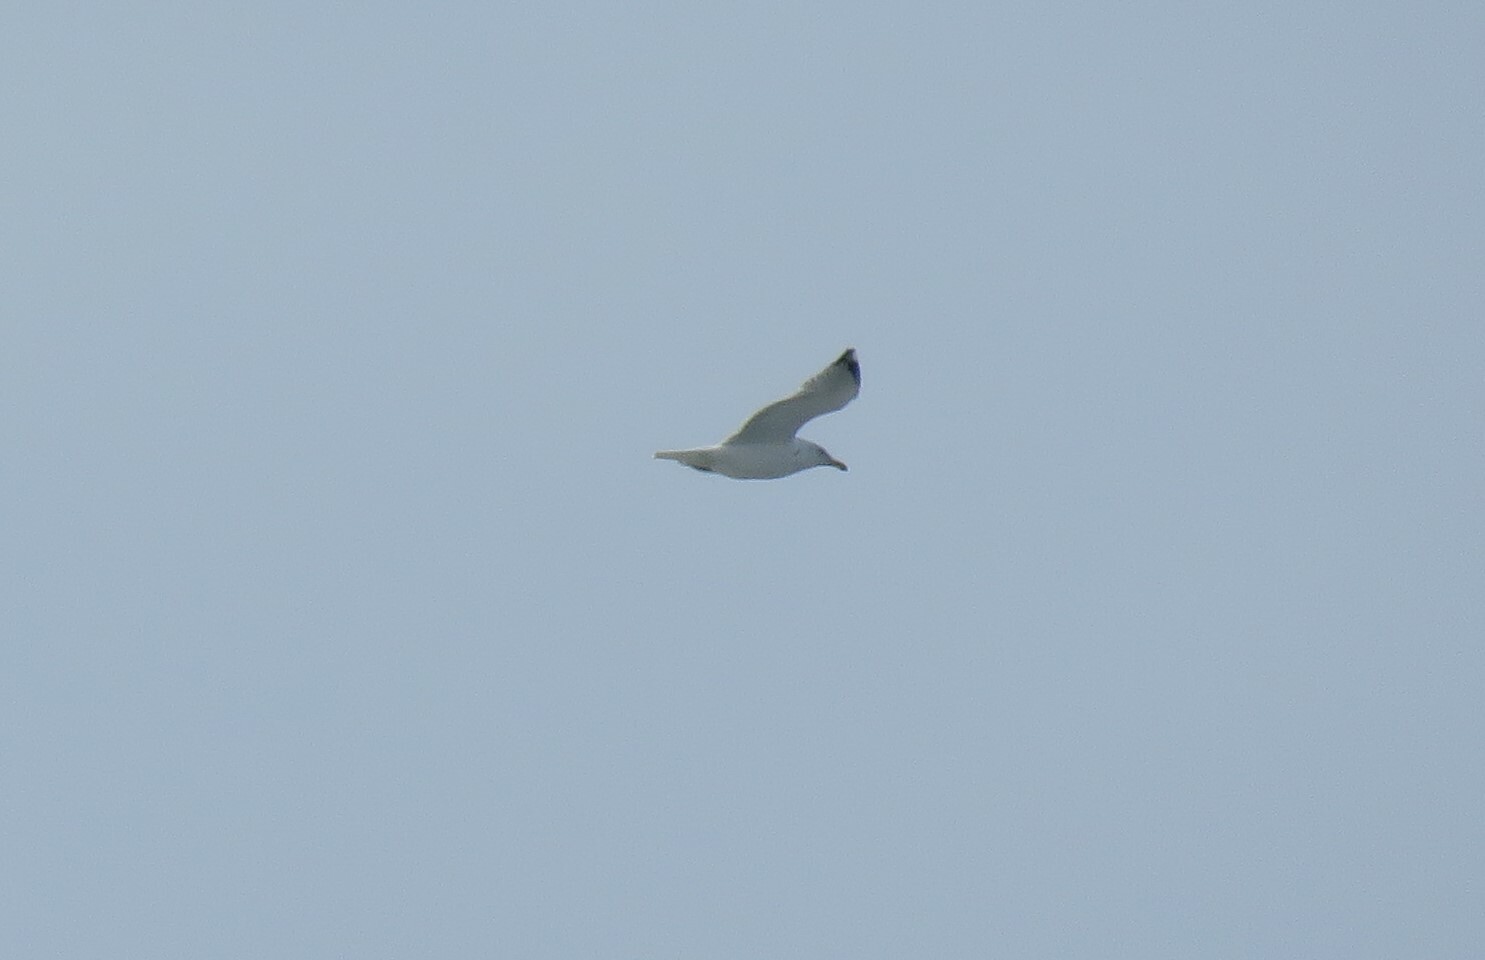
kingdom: Animalia
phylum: Chordata
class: Aves
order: Charadriiformes
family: Laridae
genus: Larus
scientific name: Larus argentatus
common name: Herring gull
